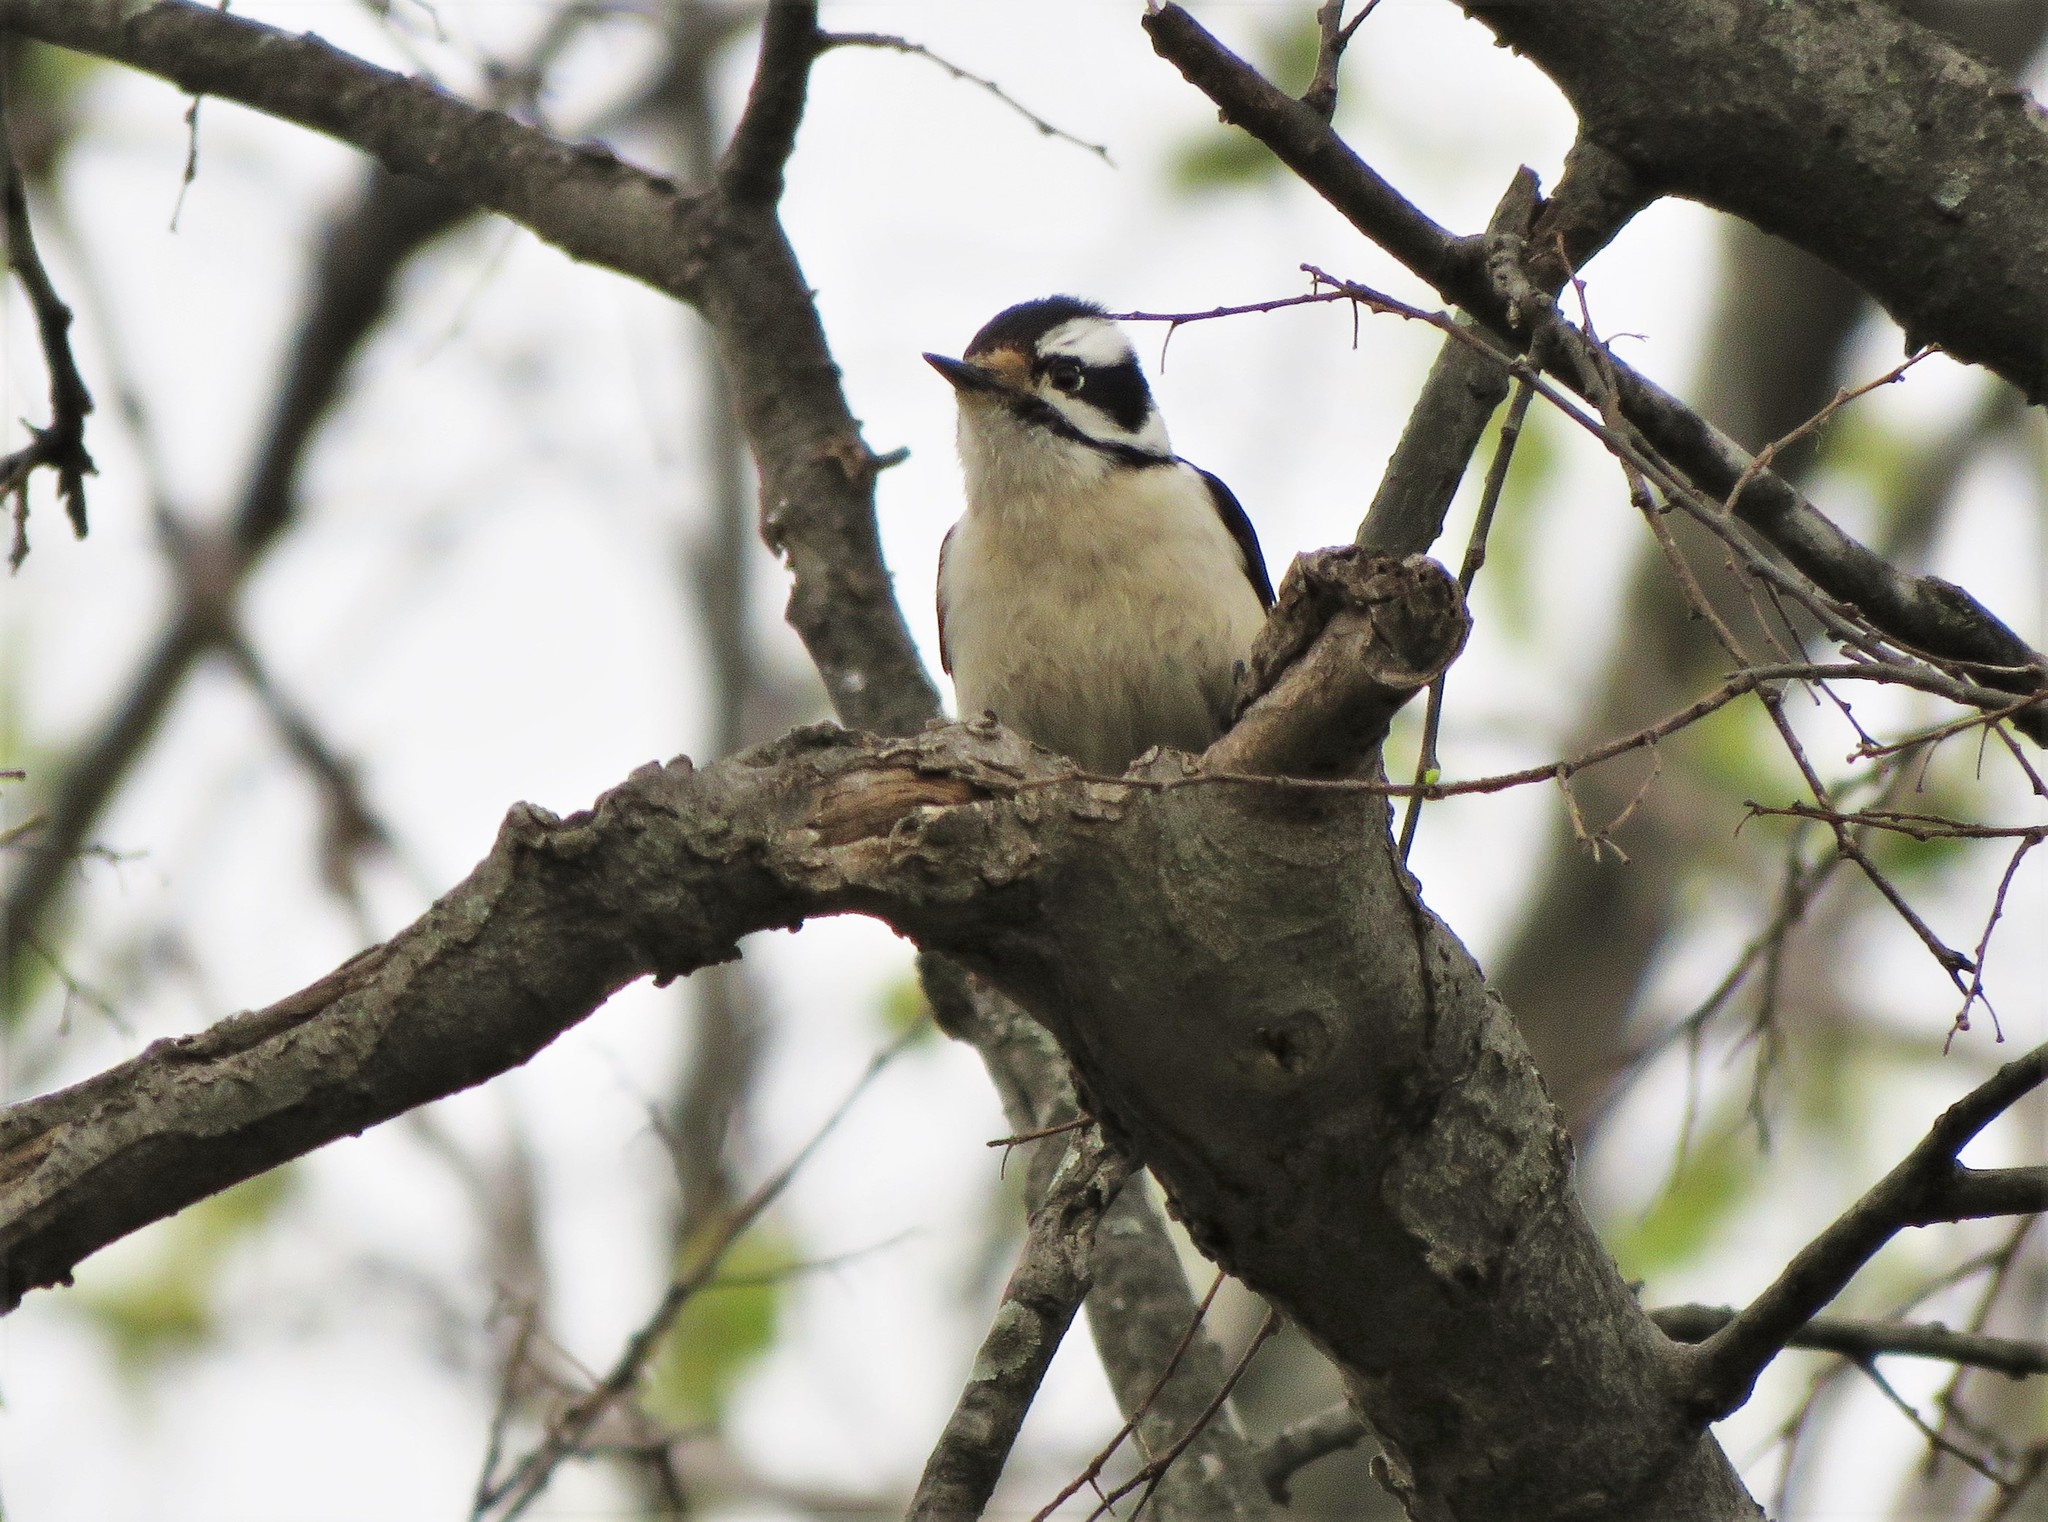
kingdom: Animalia
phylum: Chordata
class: Aves
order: Piciformes
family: Picidae
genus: Dryobates
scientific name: Dryobates pubescens
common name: Downy woodpecker
